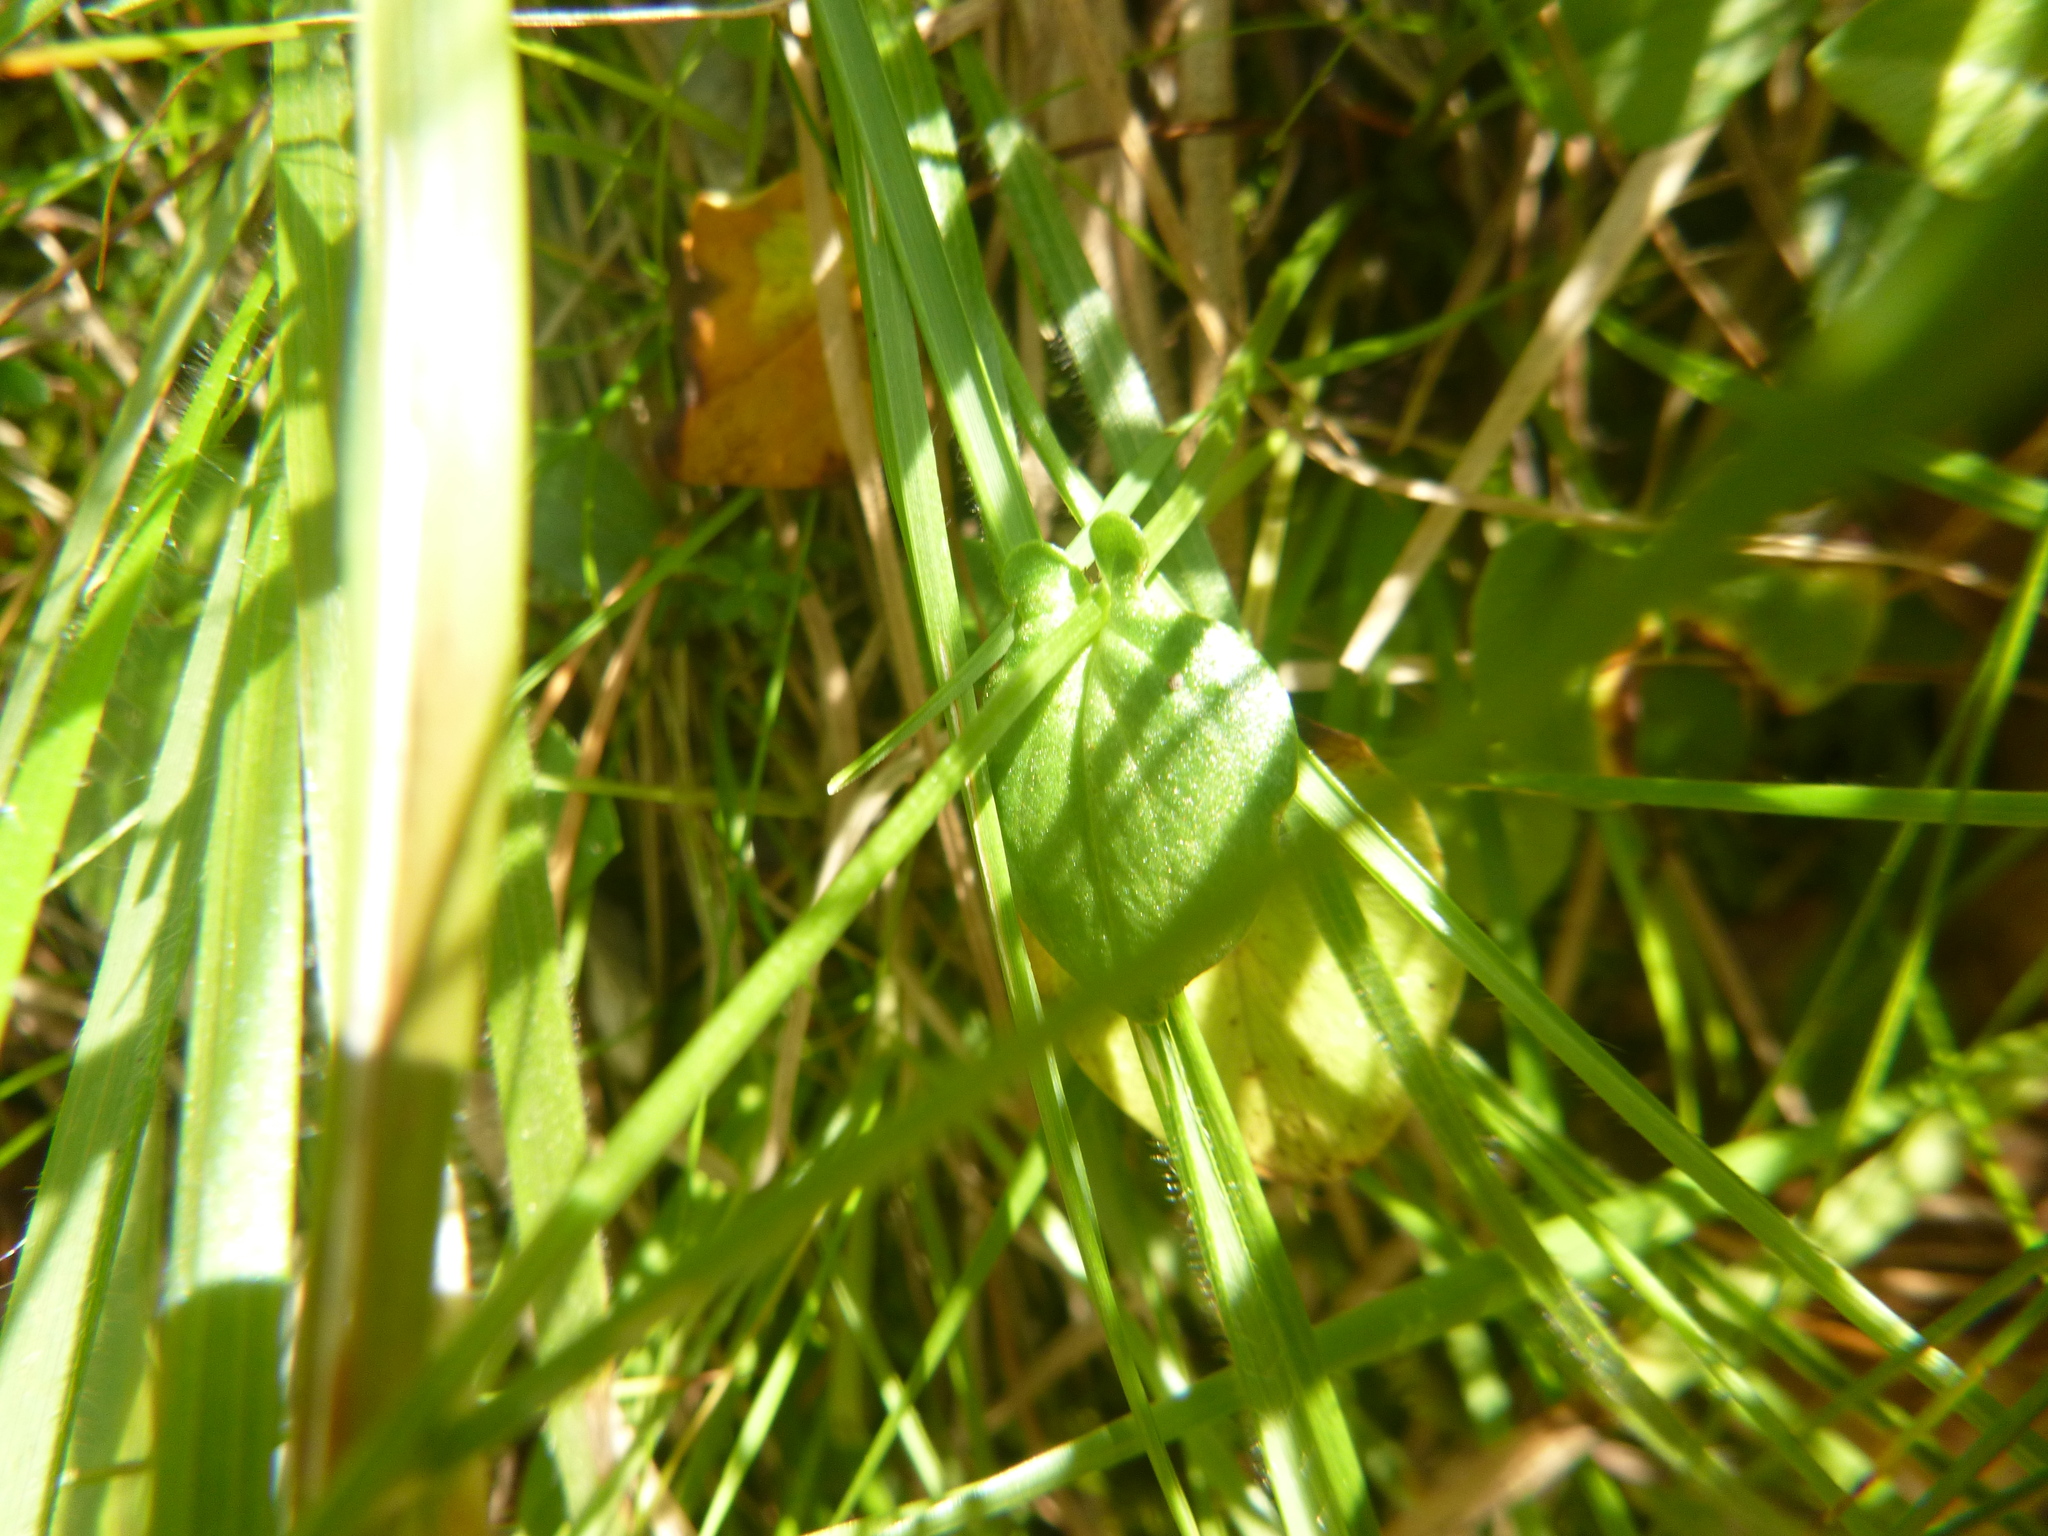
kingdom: Plantae
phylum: Tracheophyta
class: Magnoliopsida
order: Celastrales
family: Parnassiaceae
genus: Parnassia
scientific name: Parnassia palustris
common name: Grass-of-parnassus
